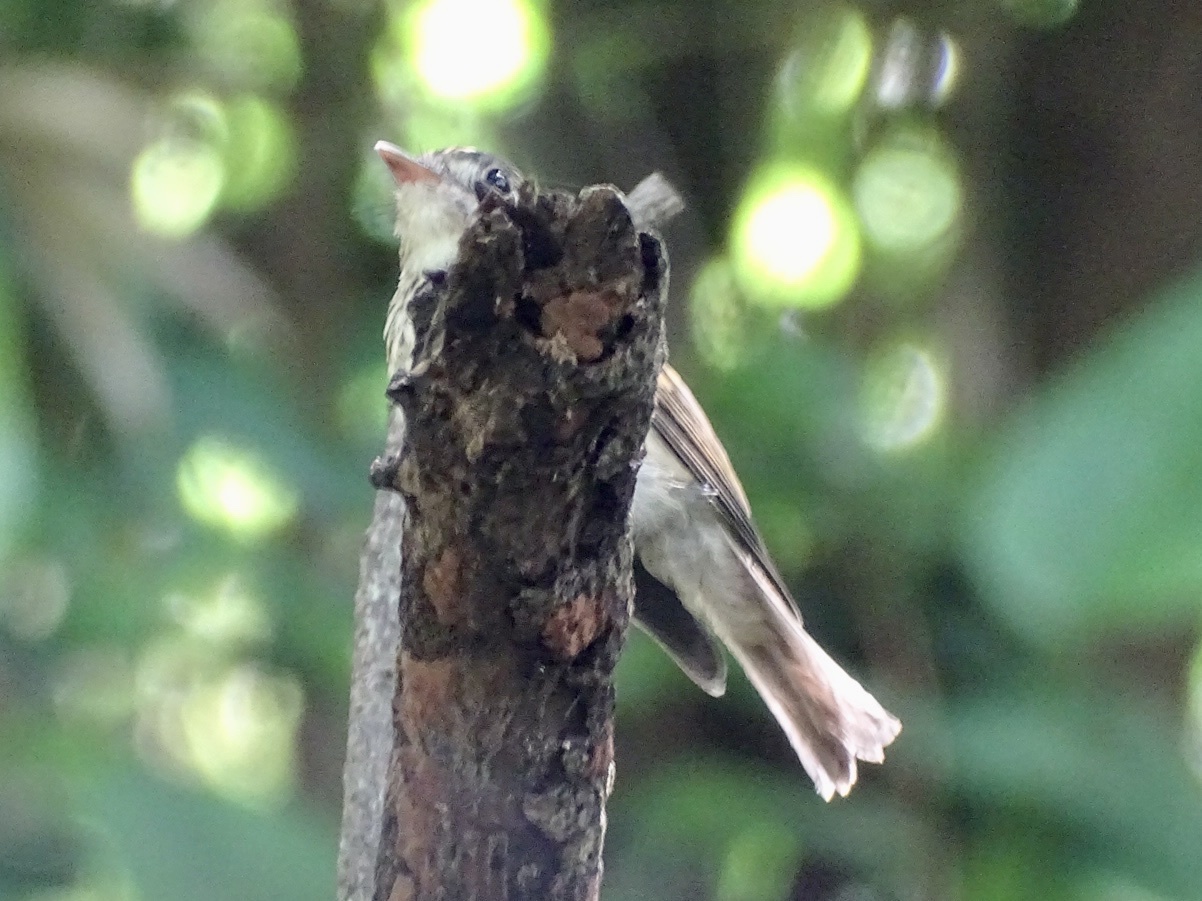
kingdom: Animalia
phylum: Chordata
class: Aves
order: Passeriformes
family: Muscicapidae
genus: Muscicapa
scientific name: Muscicapa muttui
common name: Brown-breasted flycatcher
